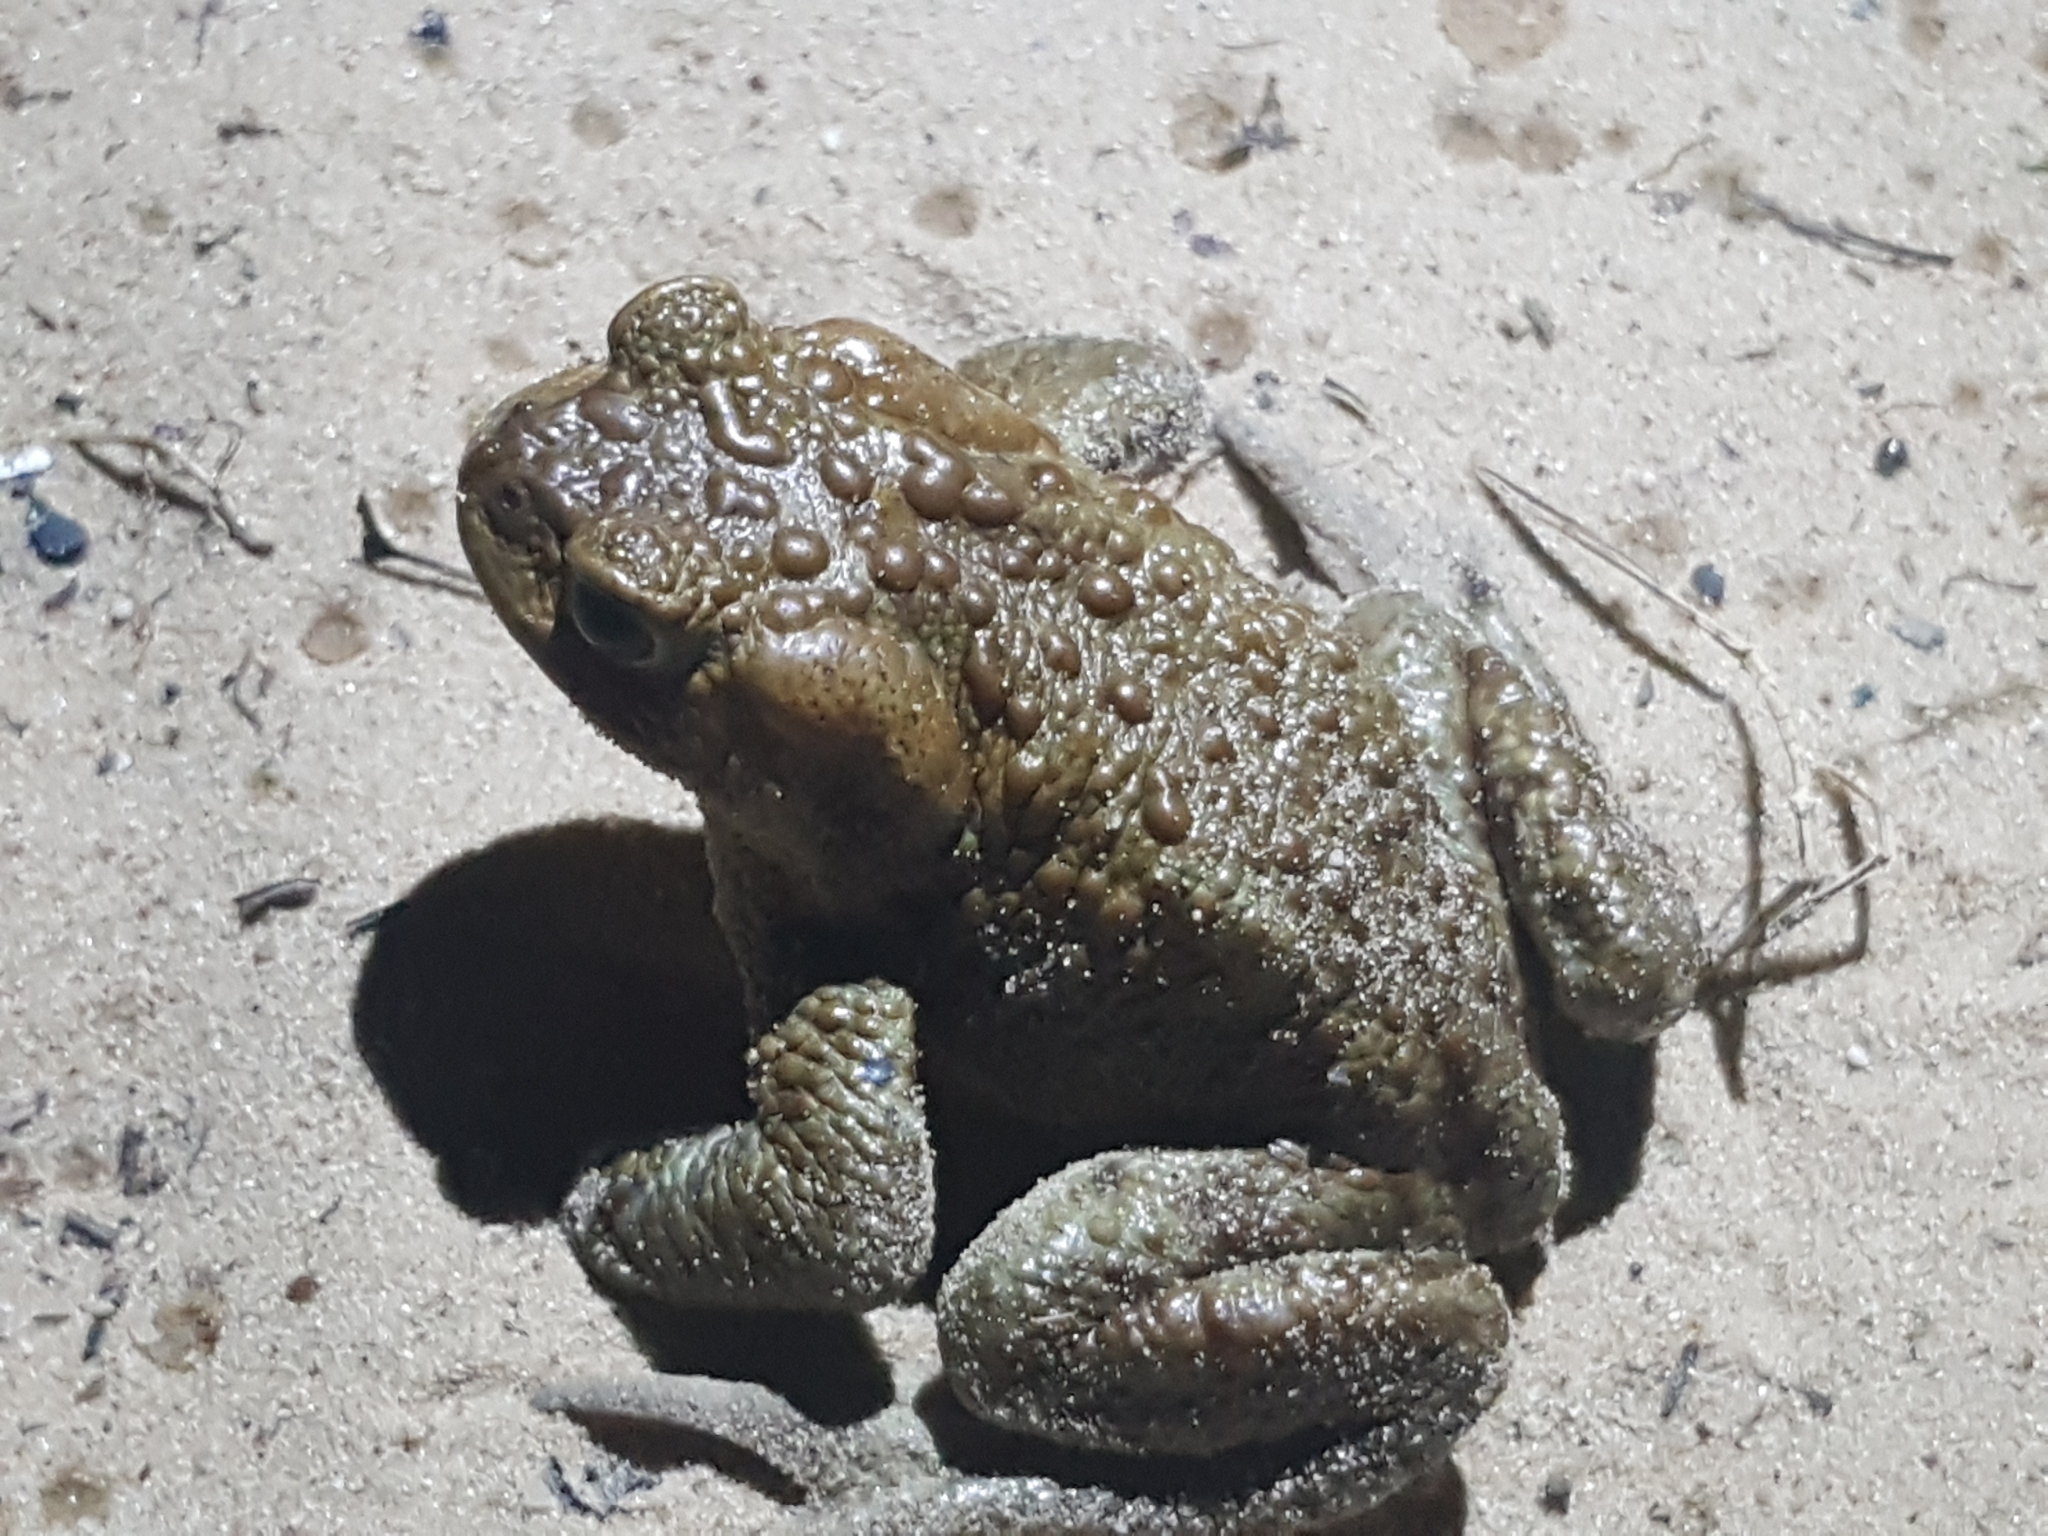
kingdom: Animalia
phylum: Chordata
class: Amphibia
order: Anura
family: Bufonidae
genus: Bufo
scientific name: Bufo bufo
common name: Common toad
